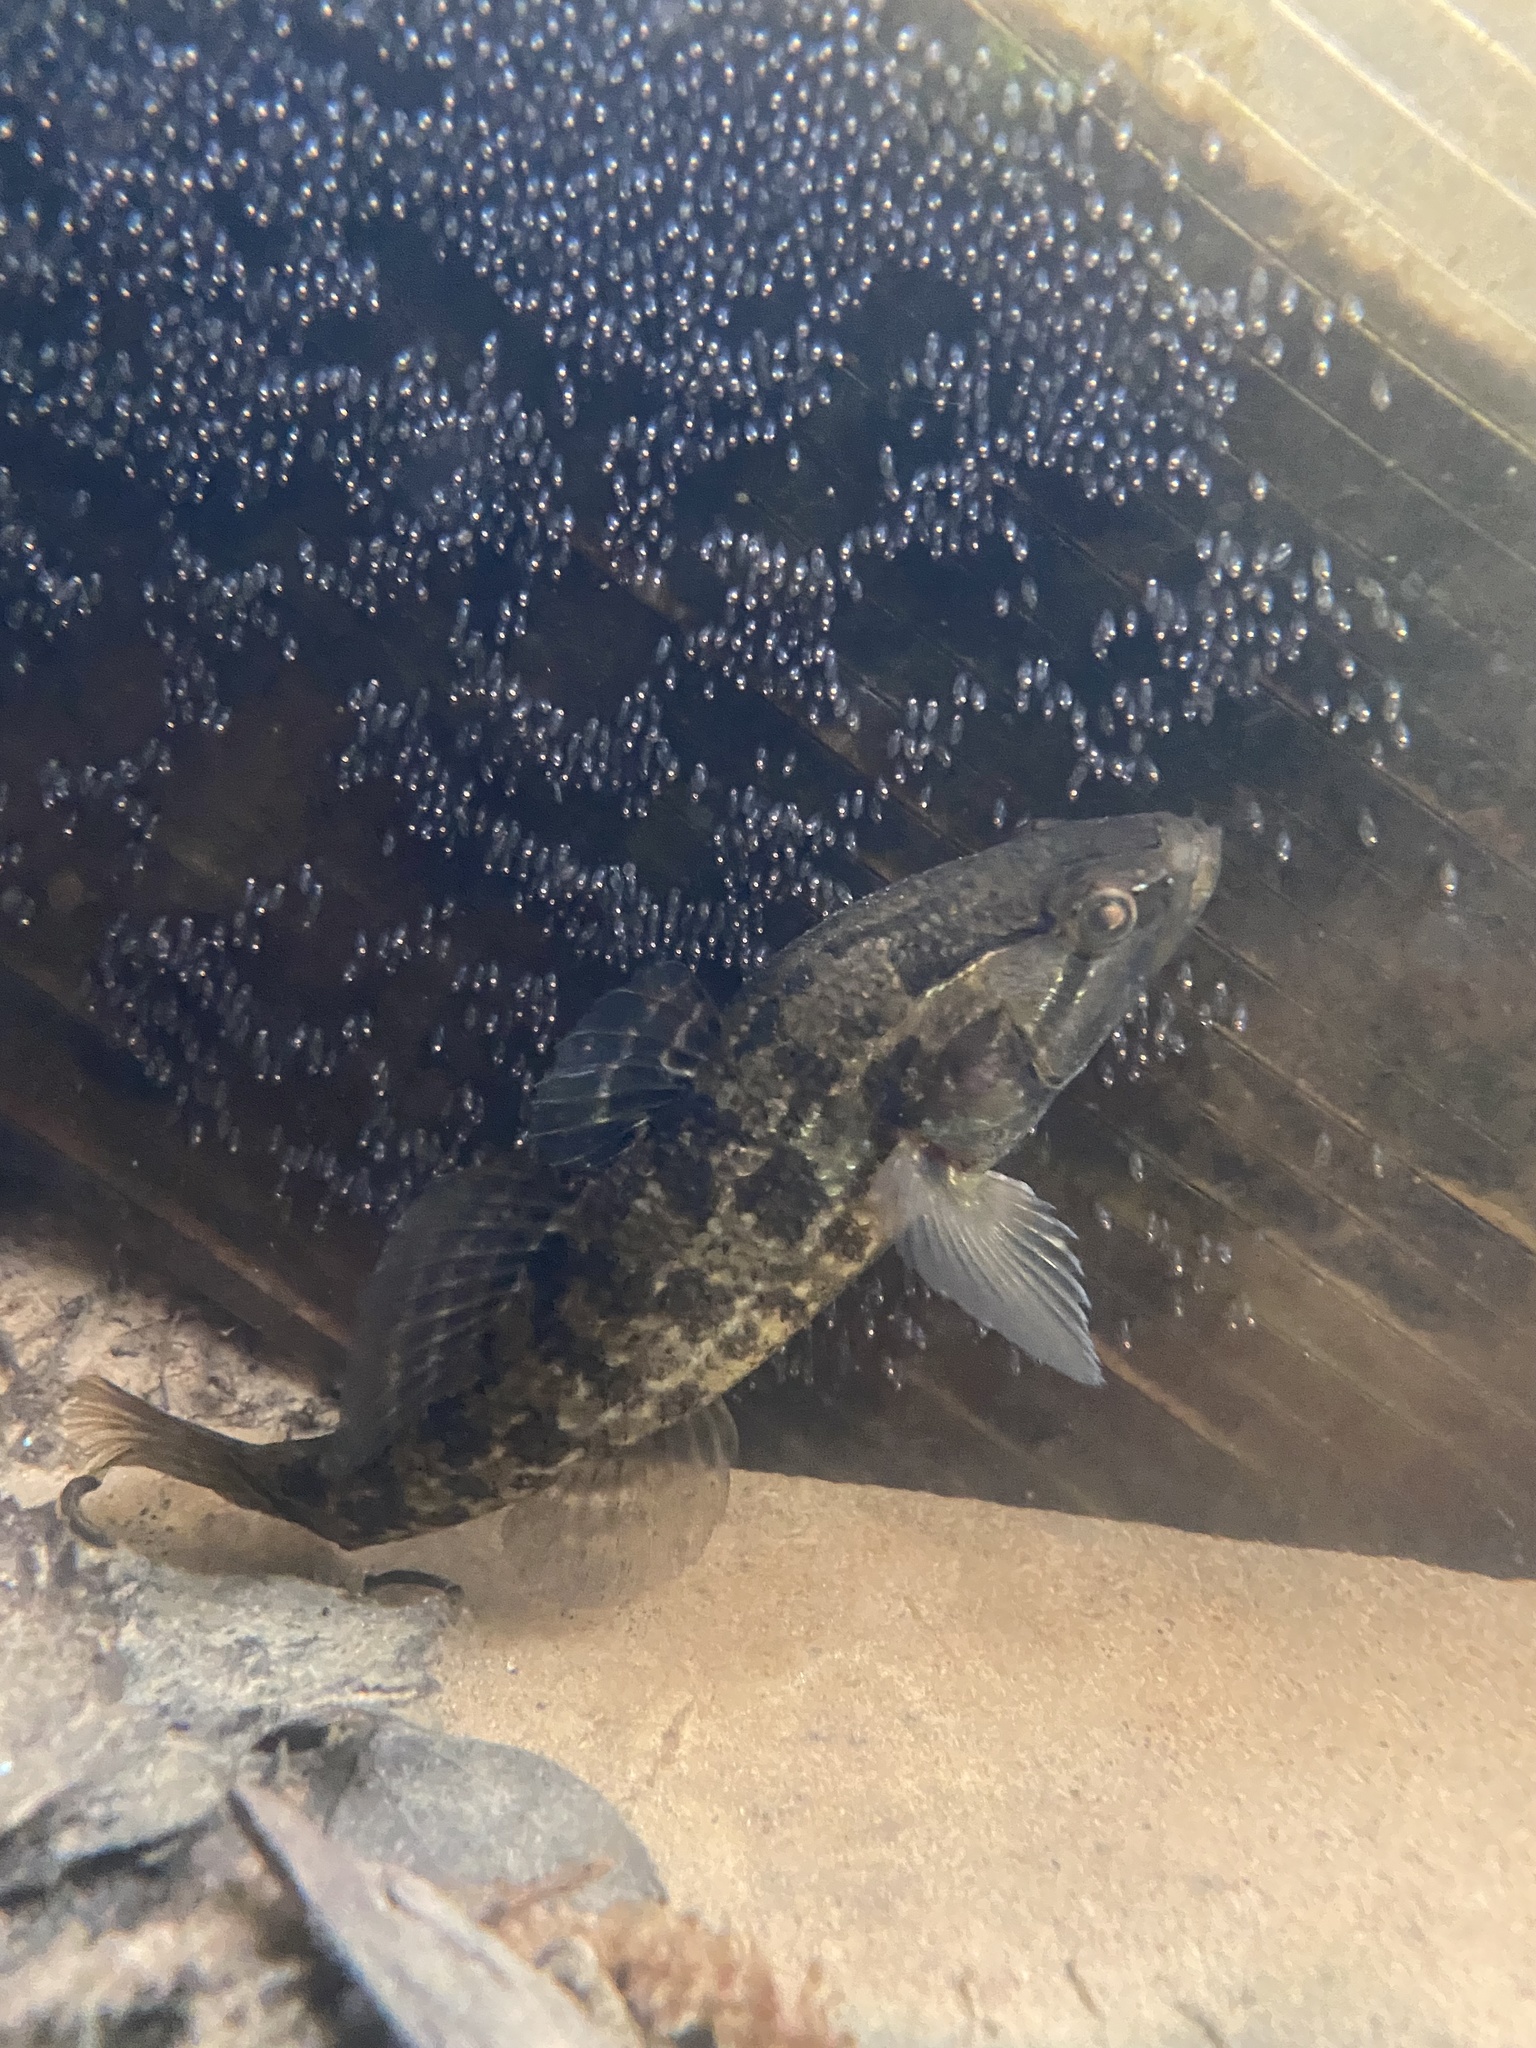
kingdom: Animalia
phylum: Chordata
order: Perciformes
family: Odontobutidae
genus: Perccottus
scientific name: Perccottus glenii
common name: Amur sleeper
